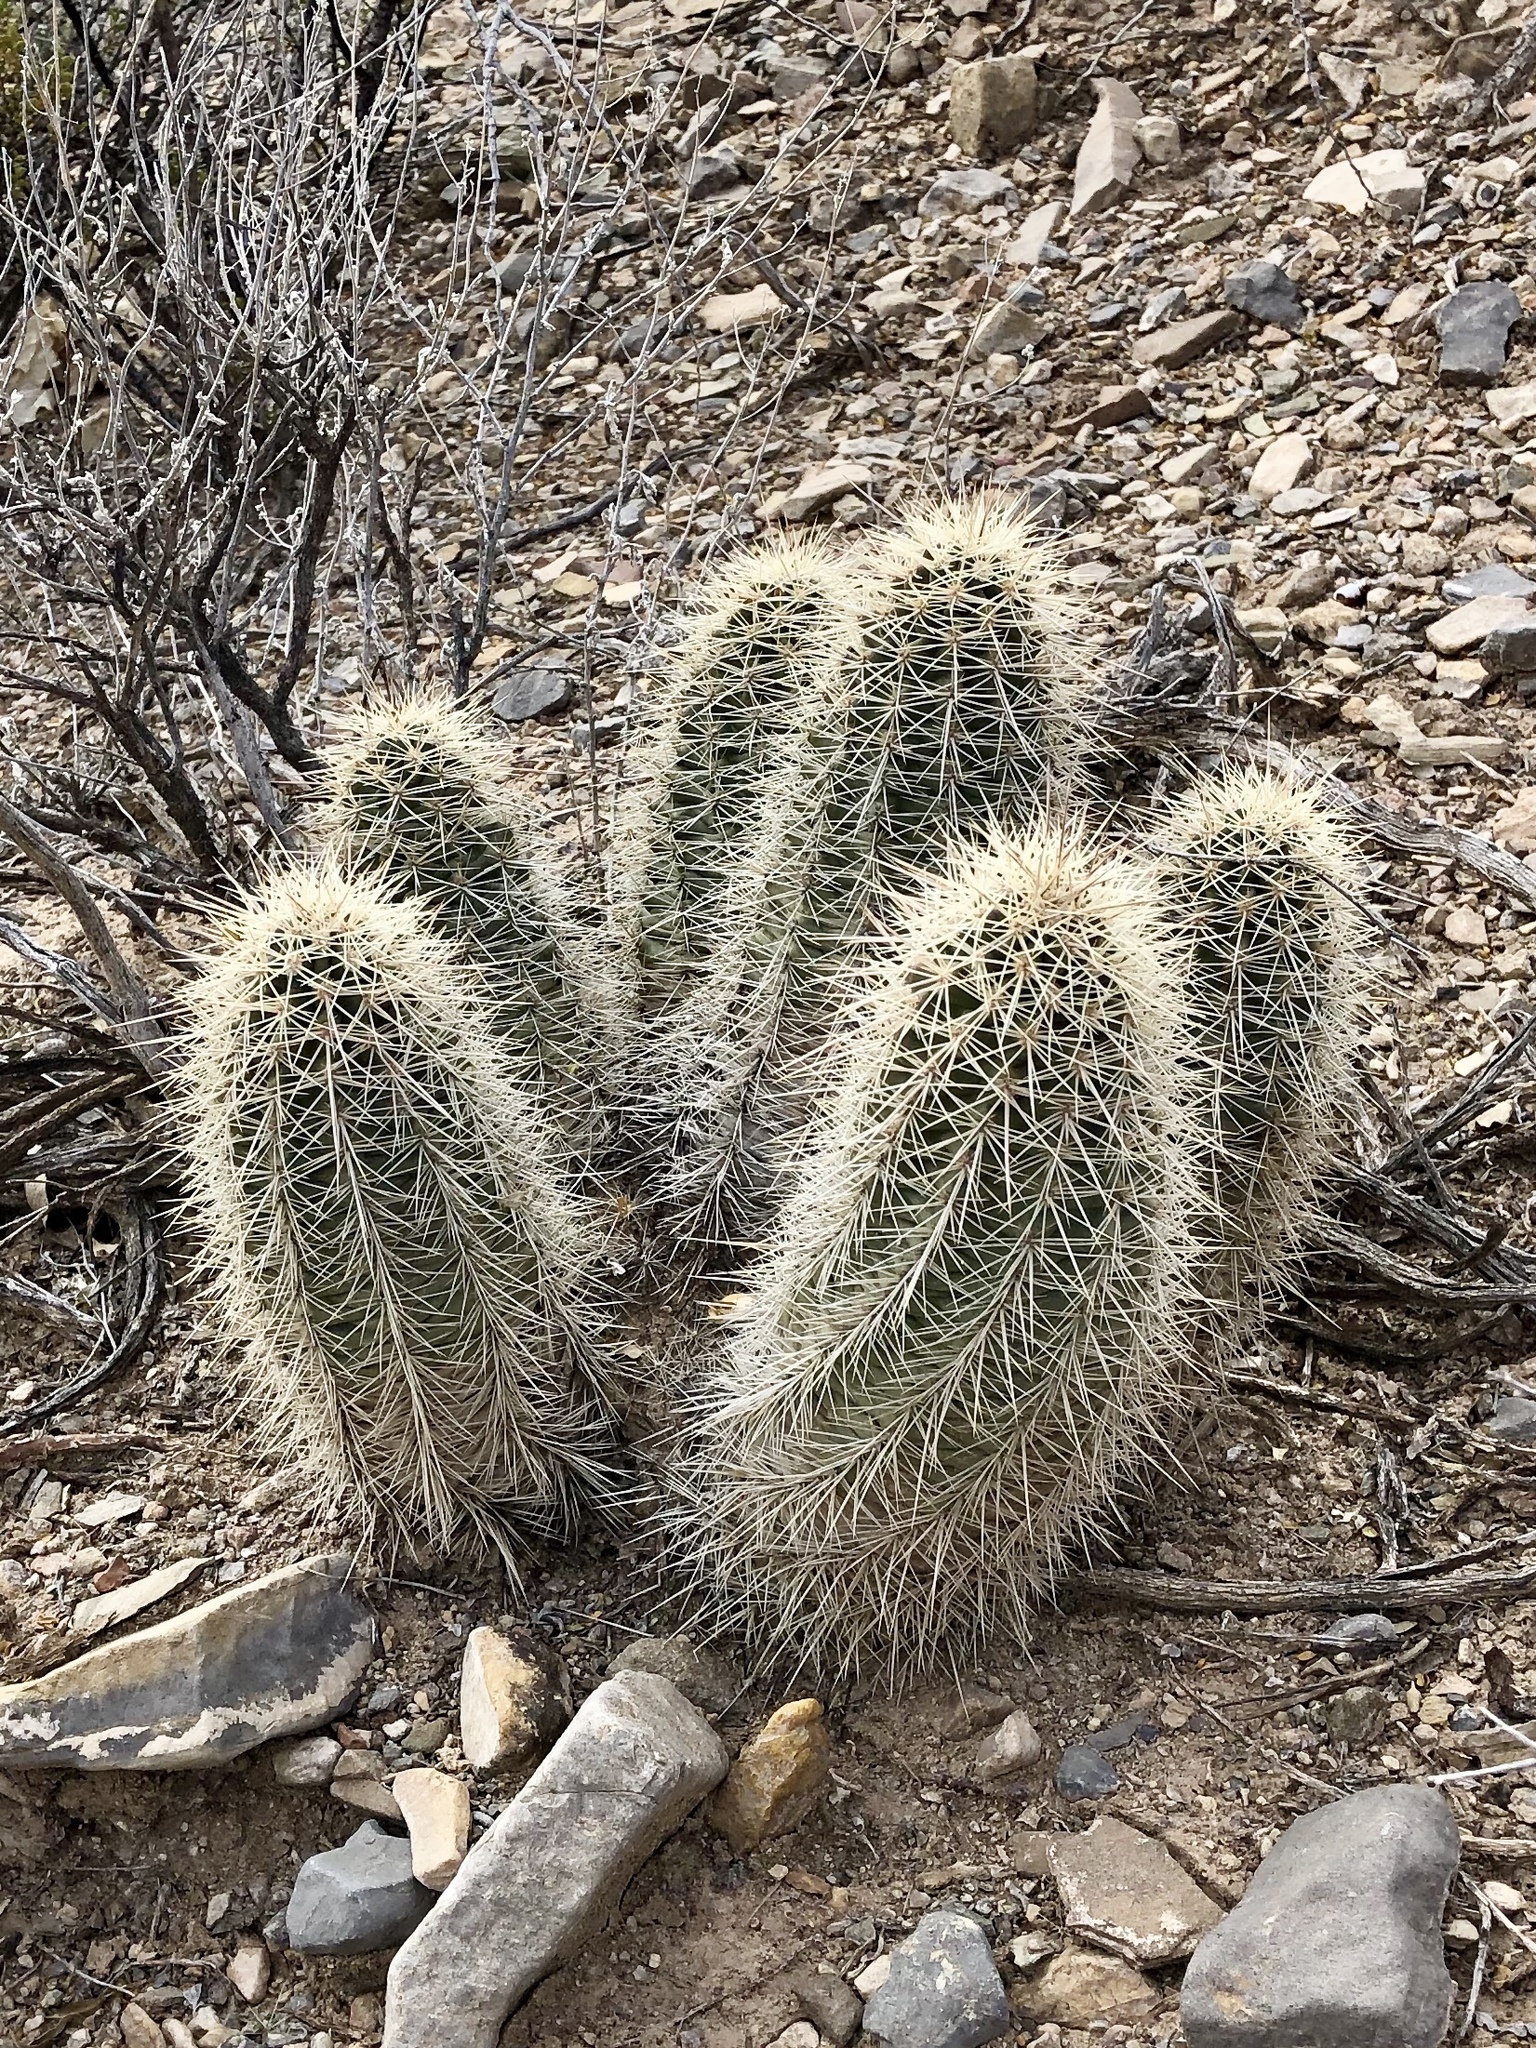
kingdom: Plantae
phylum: Tracheophyta
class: Magnoliopsida
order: Caryophyllales
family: Cactaceae
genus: Echinocereus
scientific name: Echinocereus coccineus
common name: Scarlet hedgehog cactus
